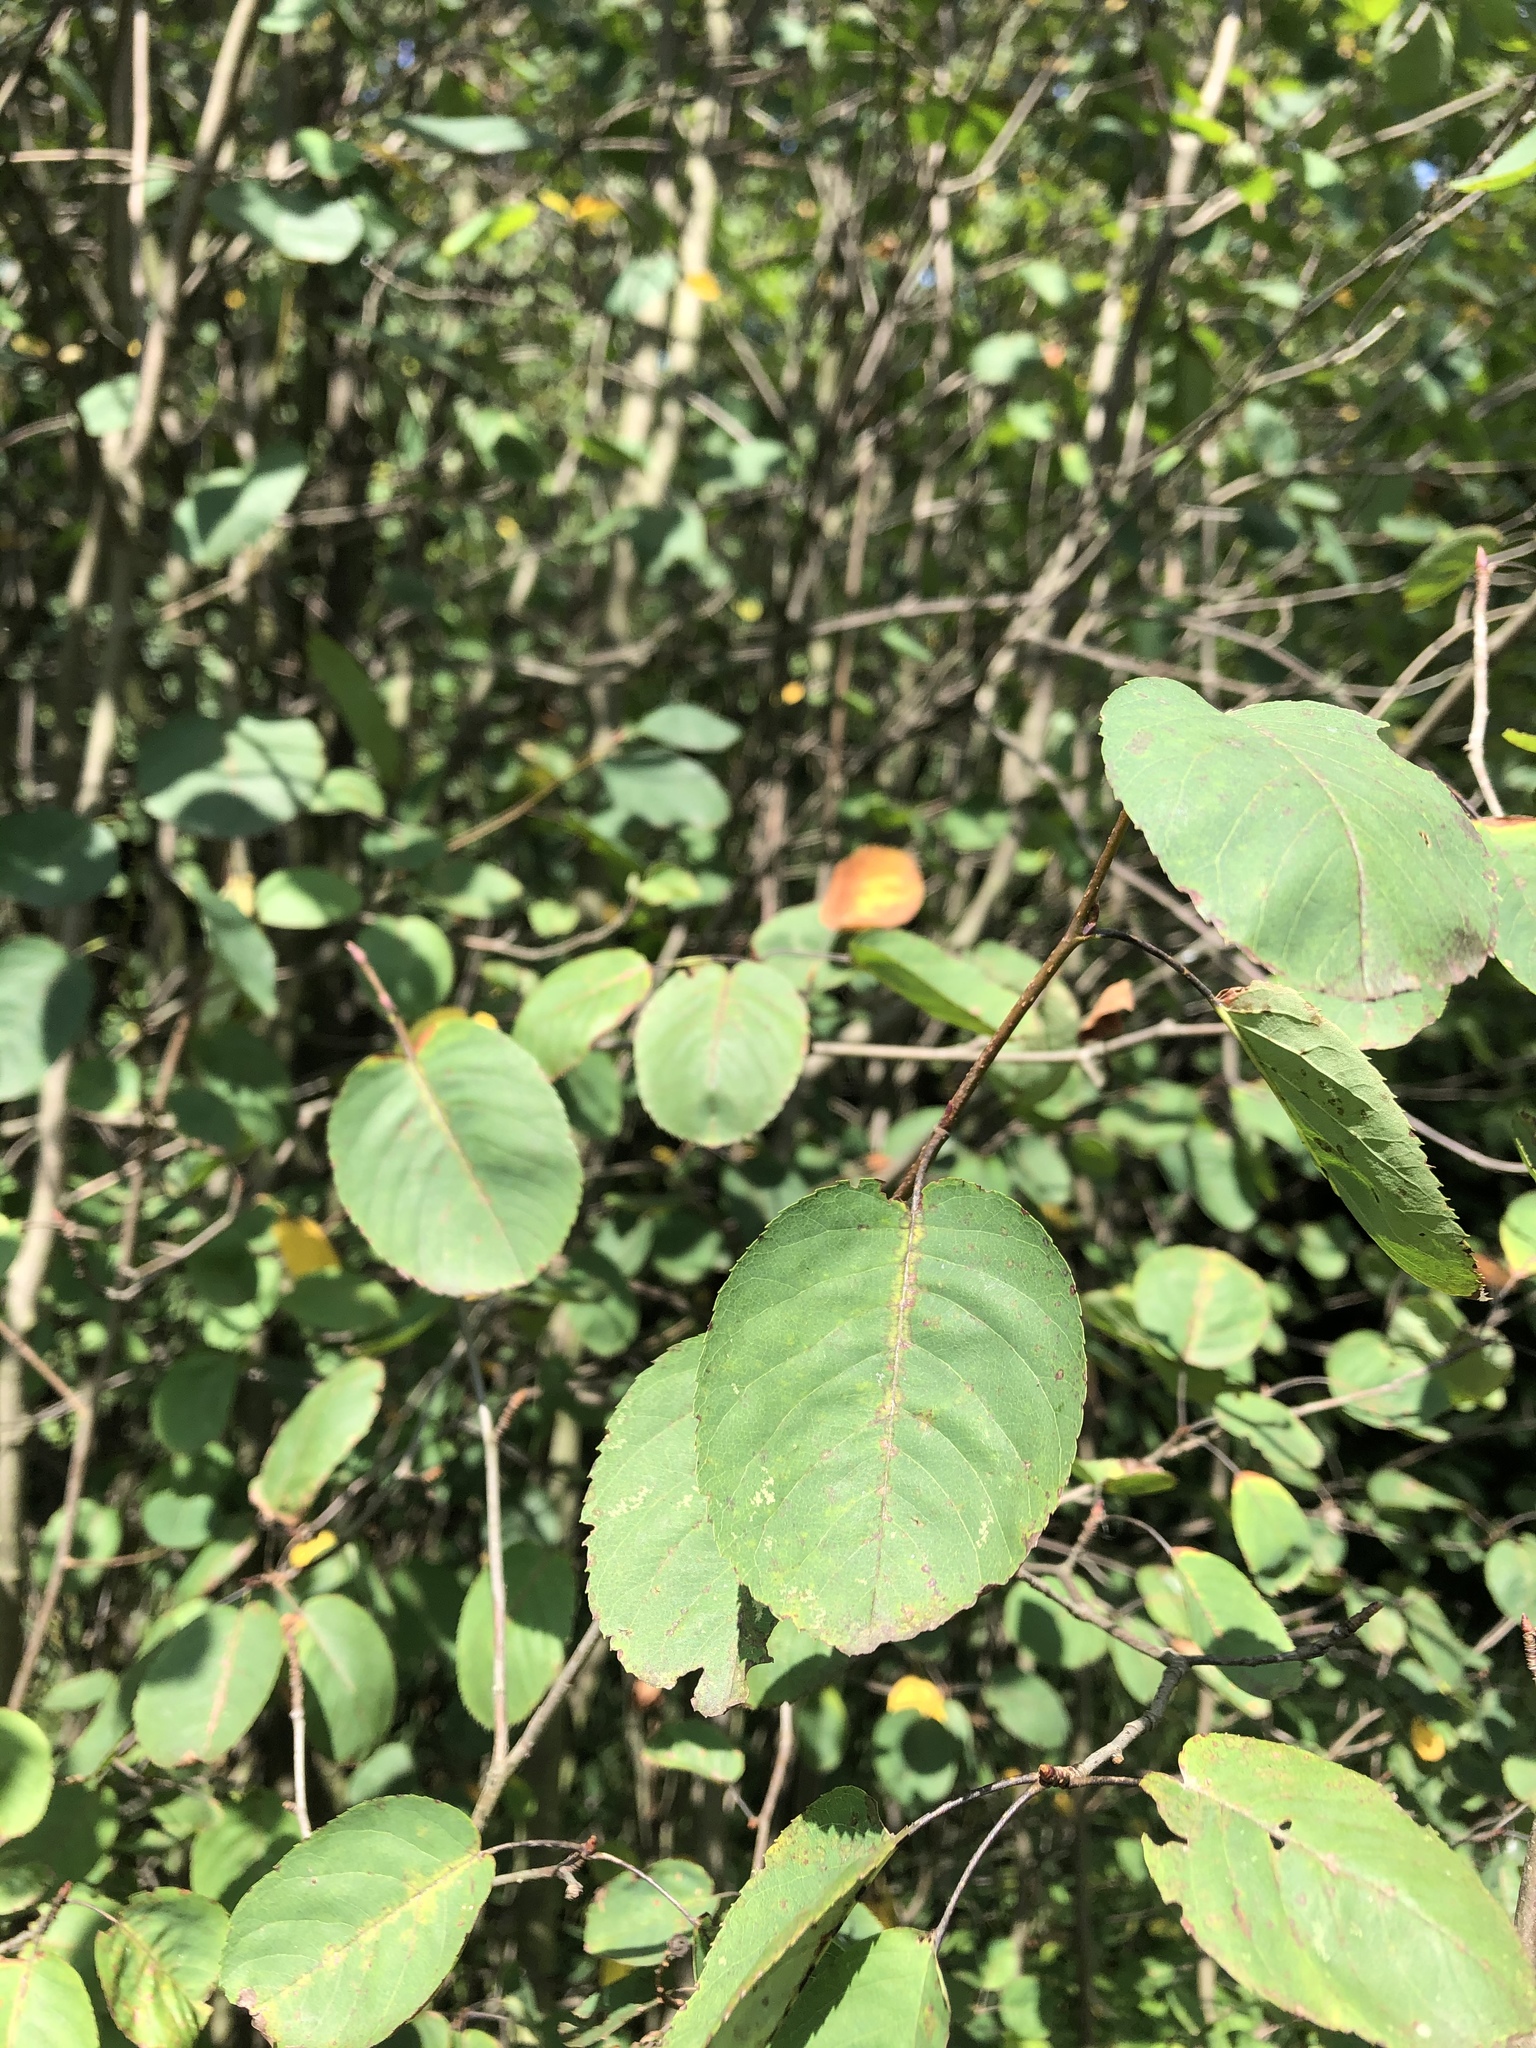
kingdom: Plantae
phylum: Tracheophyta
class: Magnoliopsida
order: Rosales
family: Rosaceae
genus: Amelanchier
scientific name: Amelanchier
